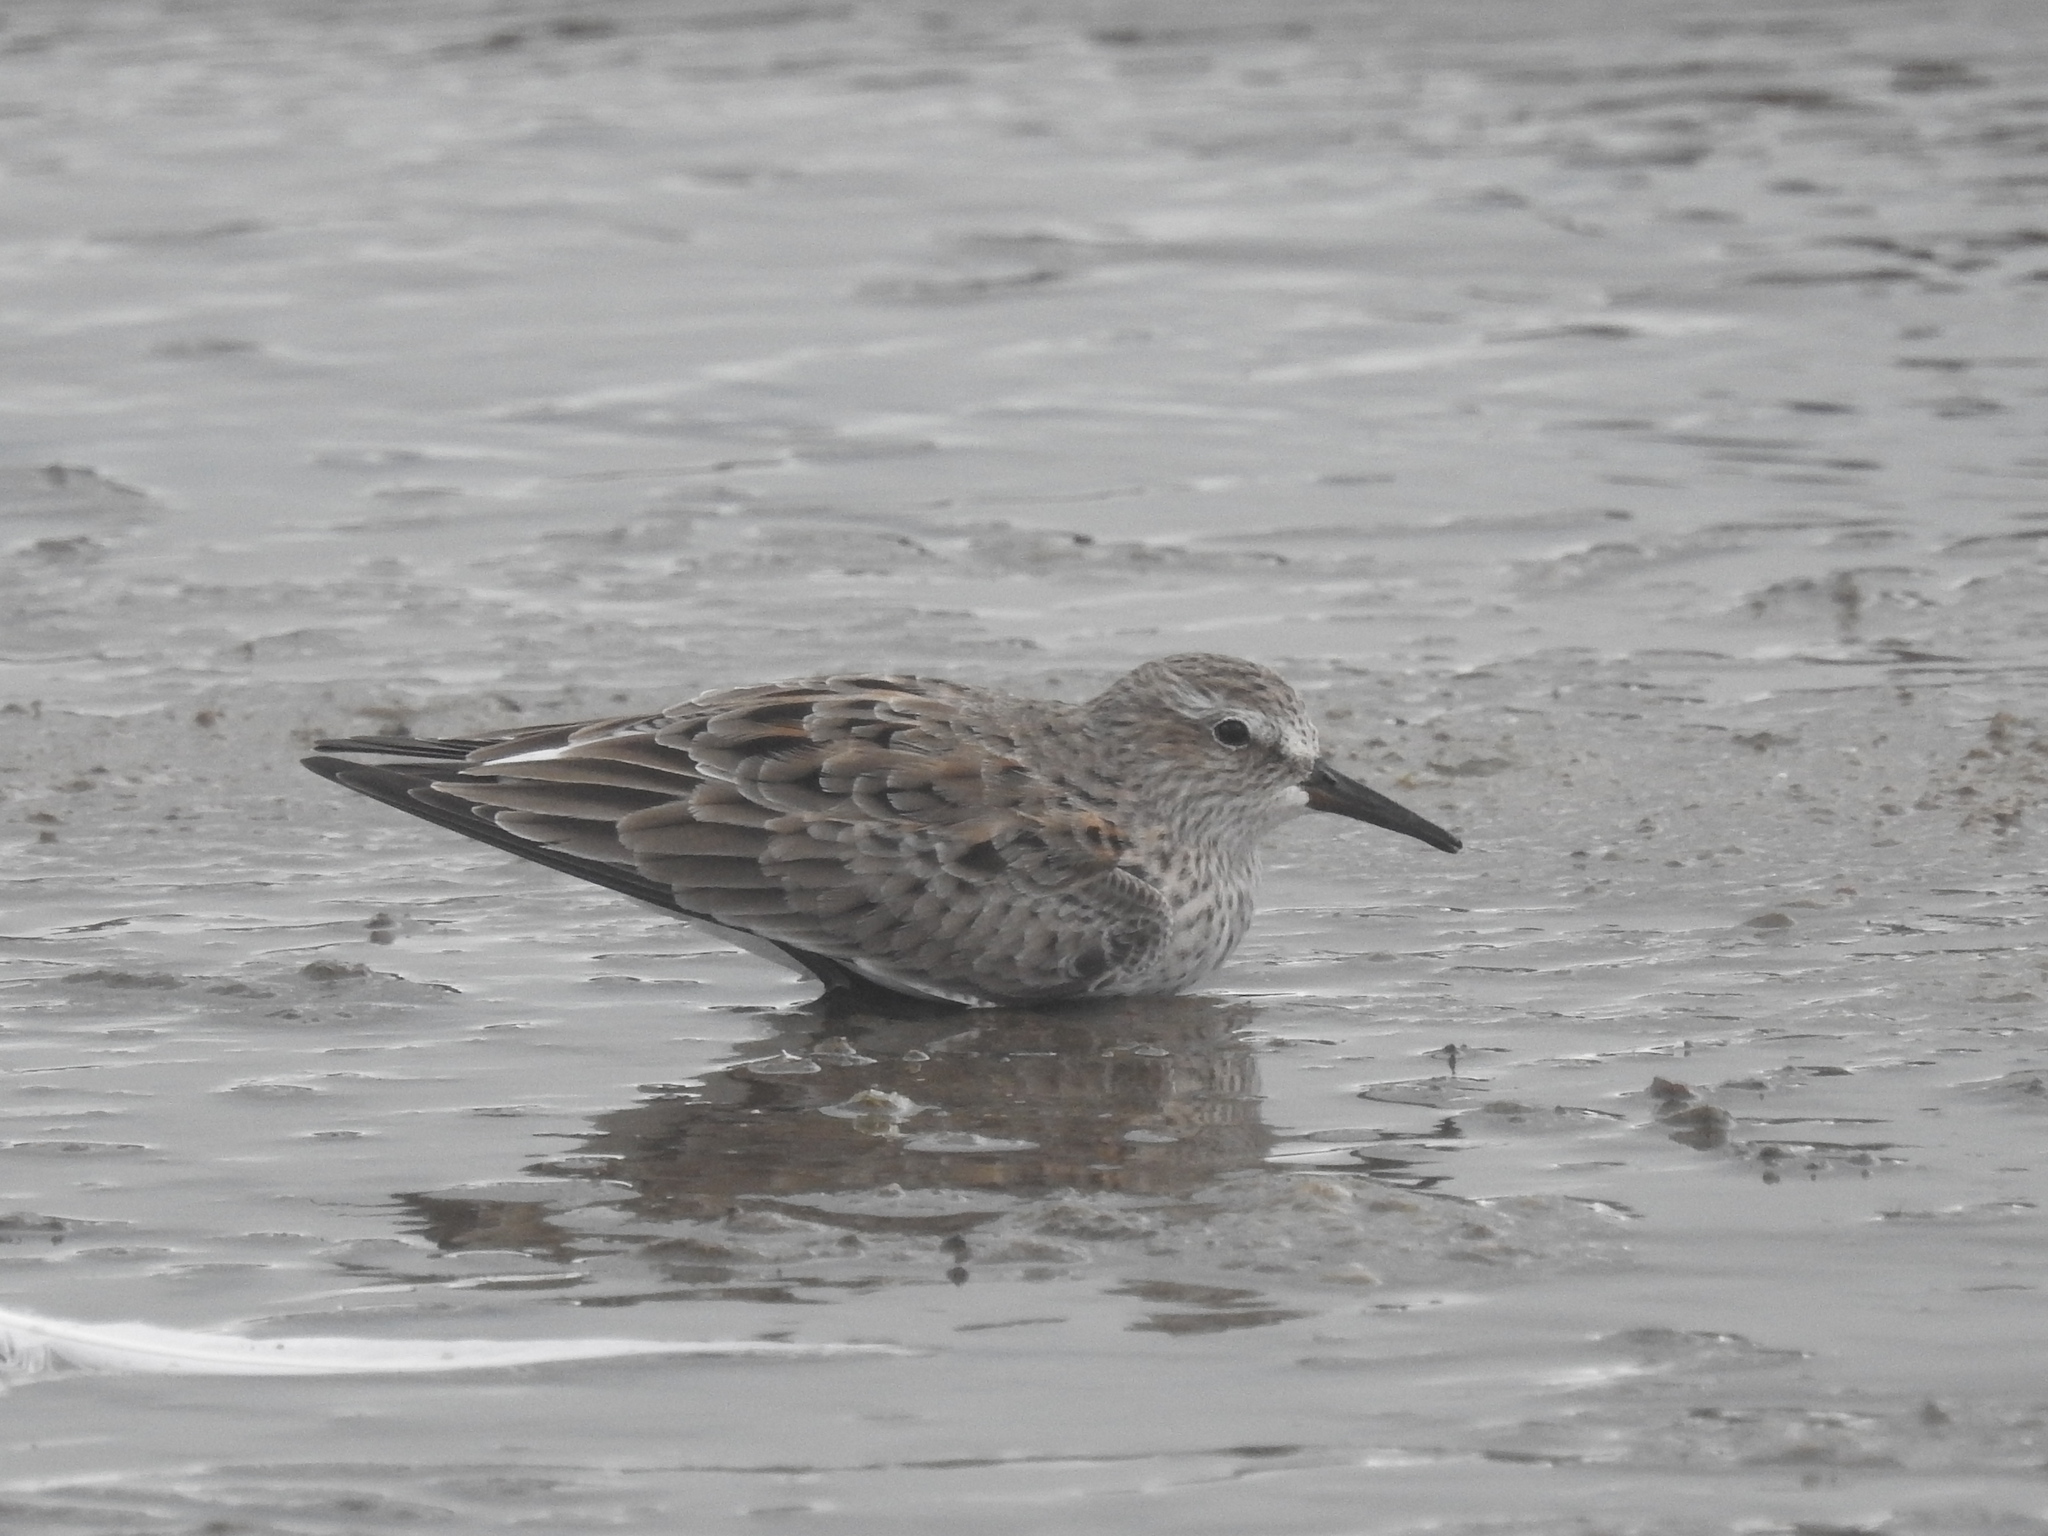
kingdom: Animalia
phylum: Chordata
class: Aves
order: Charadriiformes
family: Scolopacidae
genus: Calidris
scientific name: Calidris fuscicollis
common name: White-rumped sandpiper
